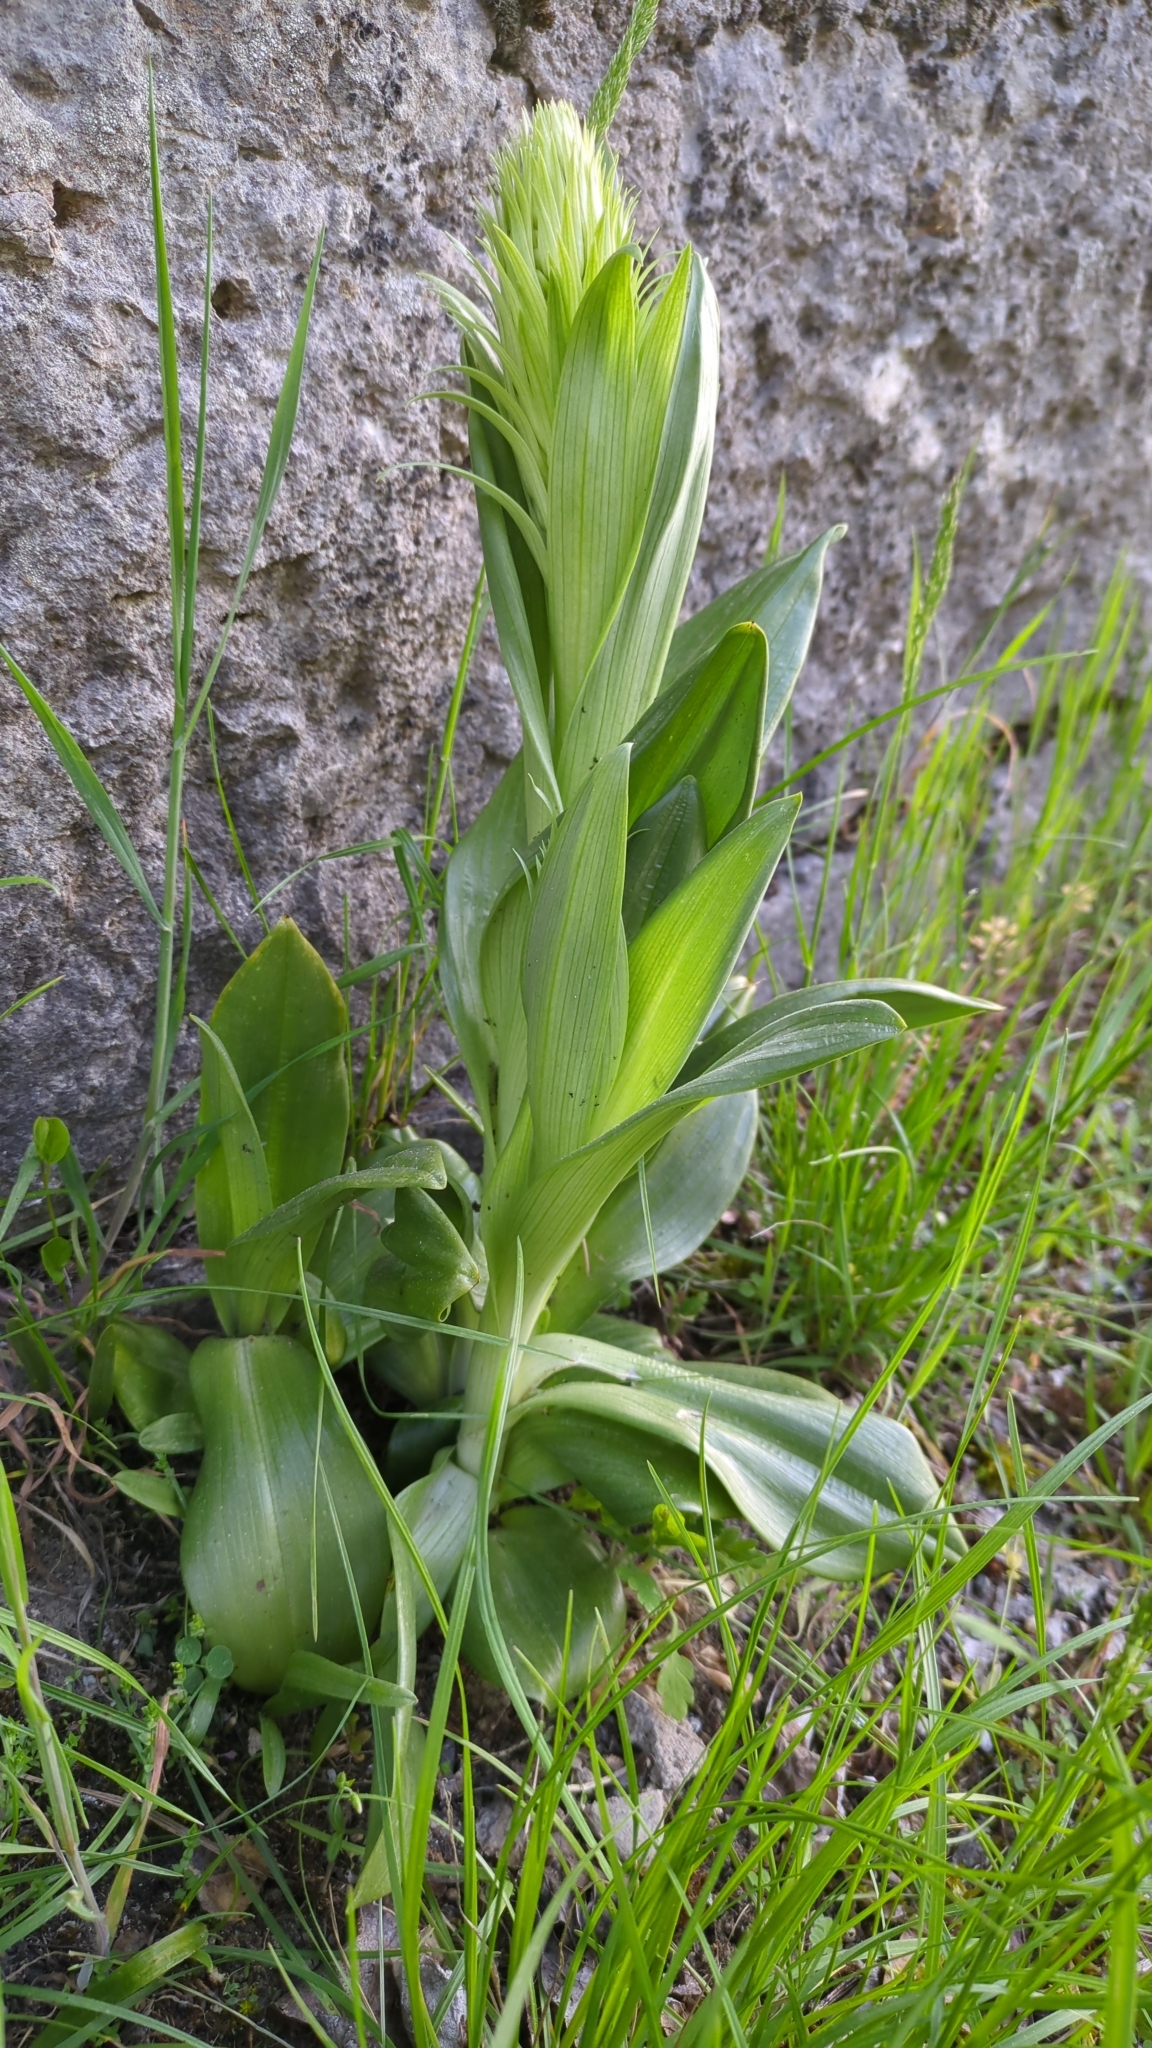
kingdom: Plantae
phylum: Tracheophyta
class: Liliopsida
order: Asparagales
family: Orchidaceae
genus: Himantoglossum
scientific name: Himantoglossum hircinum
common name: Lizard orchid
